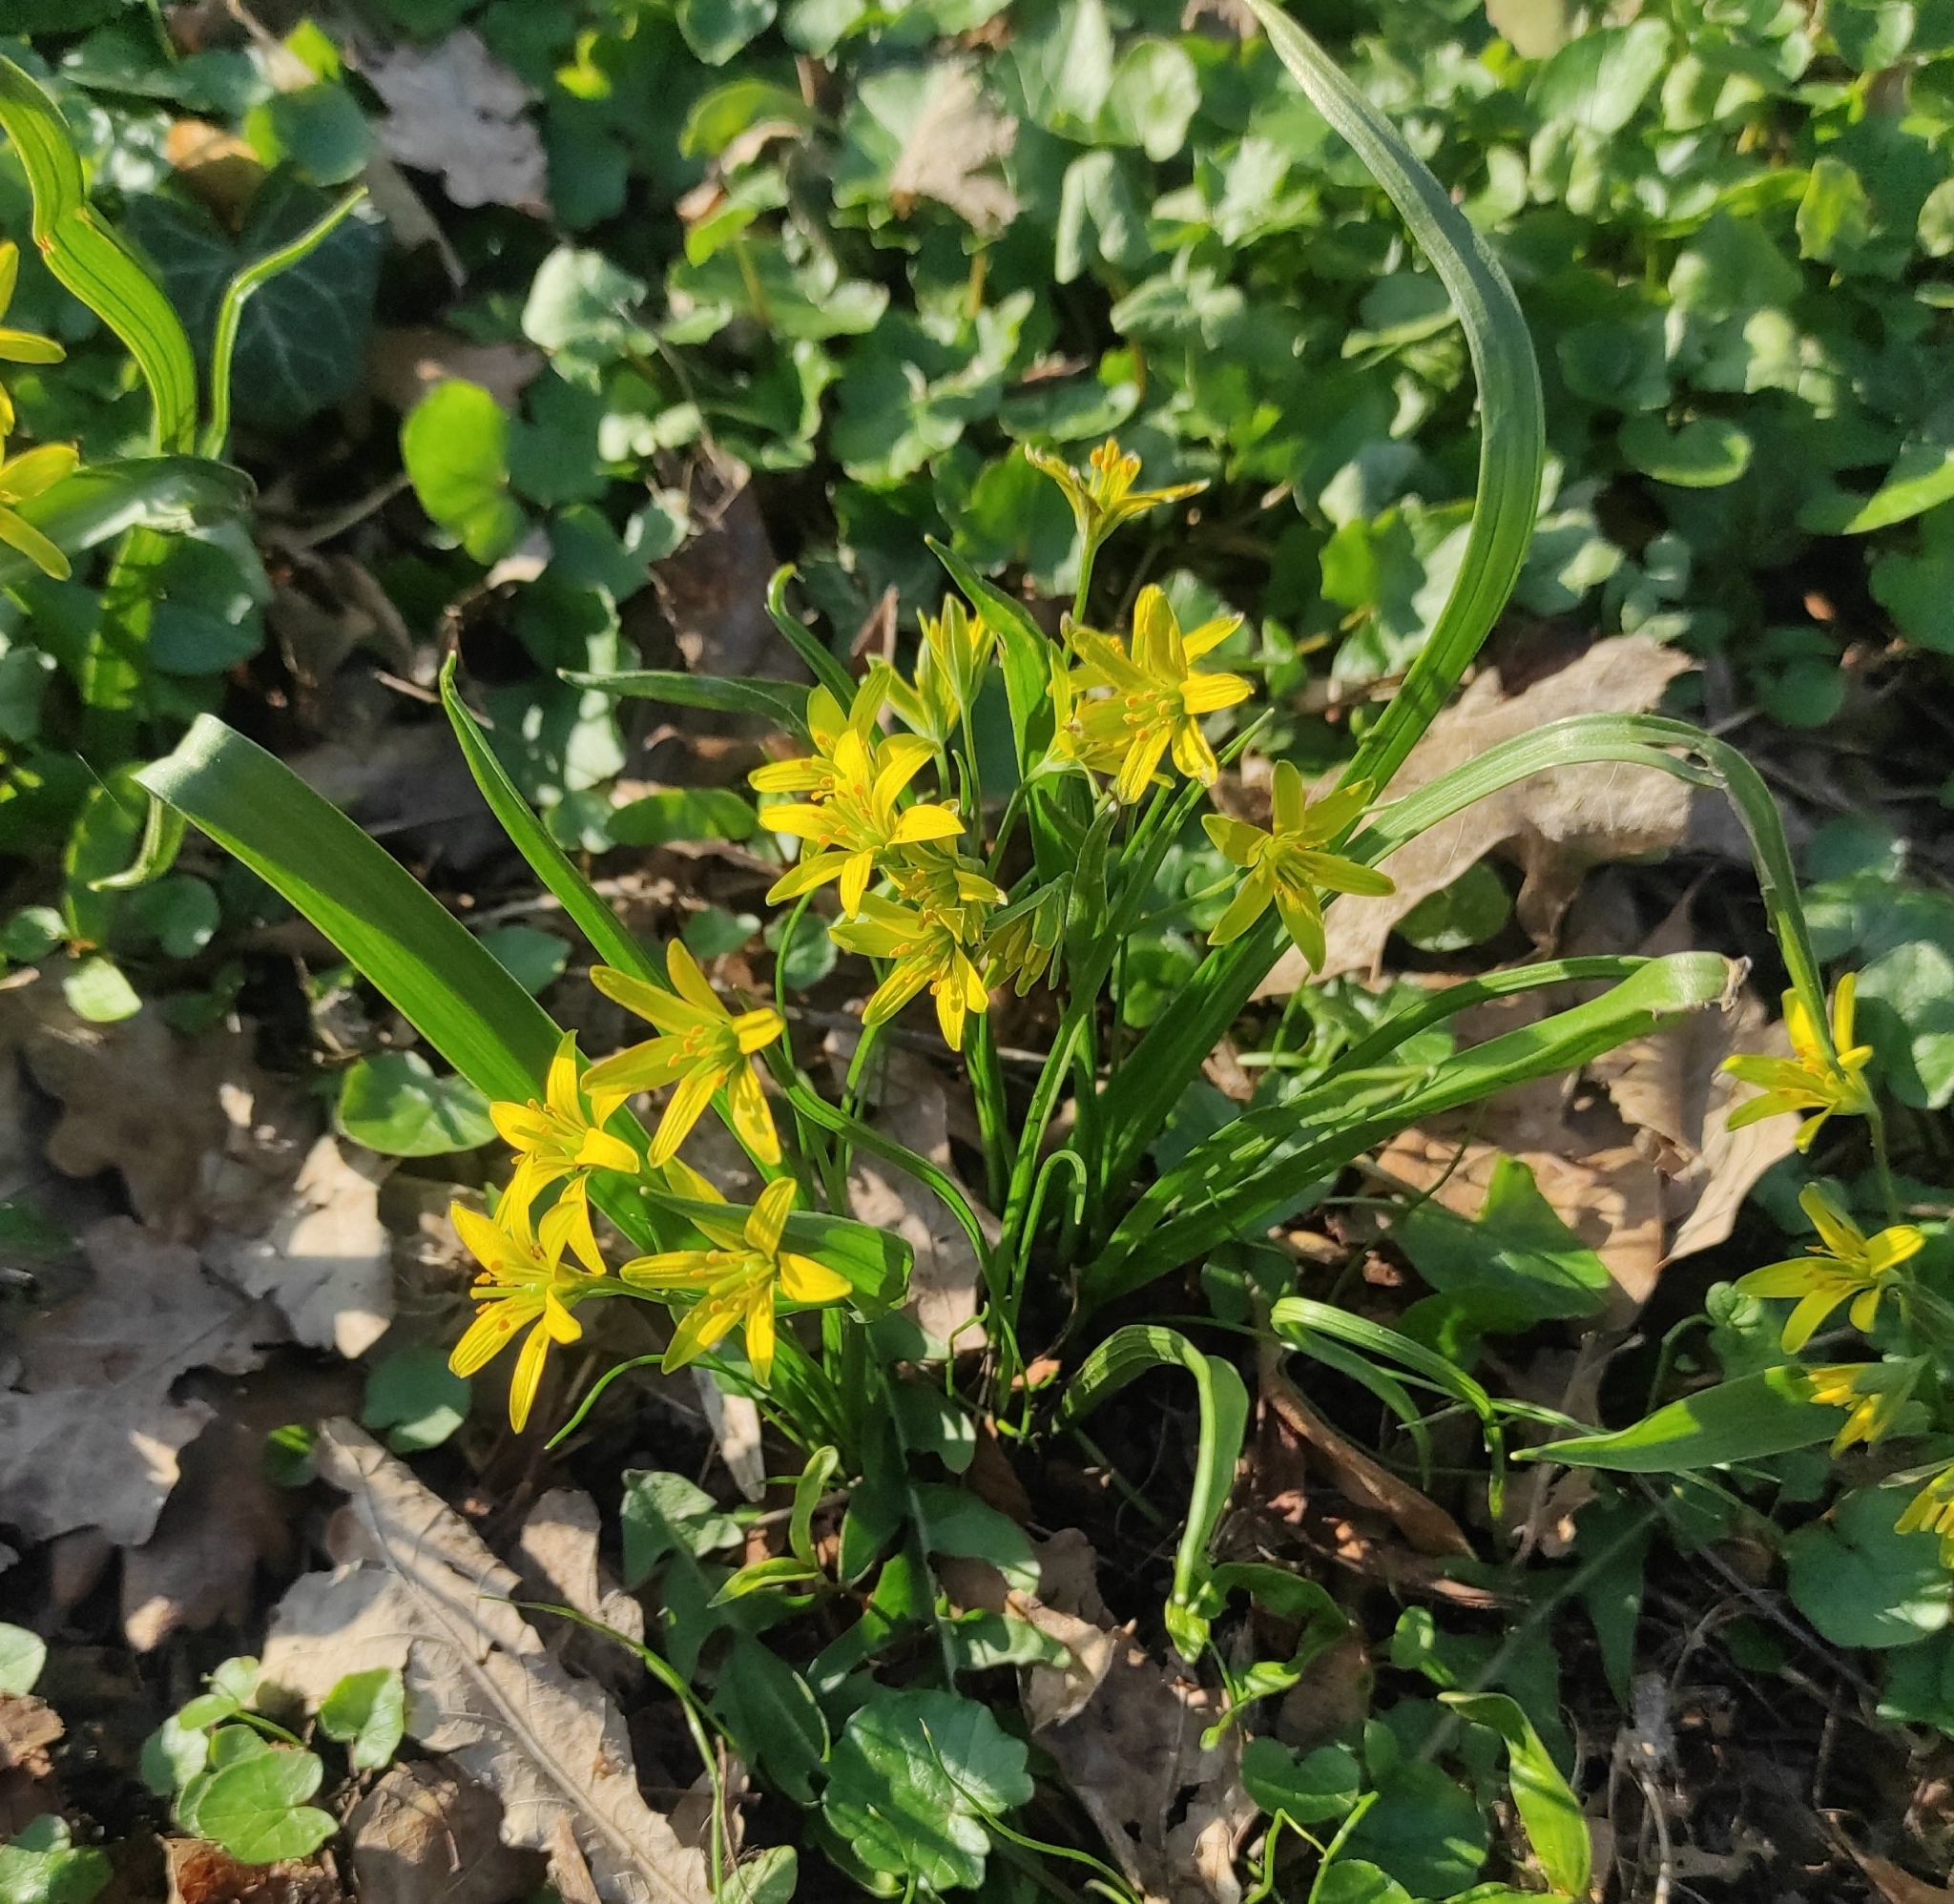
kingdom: Plantae
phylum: Tracheophyta
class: Liliopsida
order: Liliales
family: Liliaceae
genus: Gagea
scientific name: Gagea lutea
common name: Yellow star-of-bethlehem
